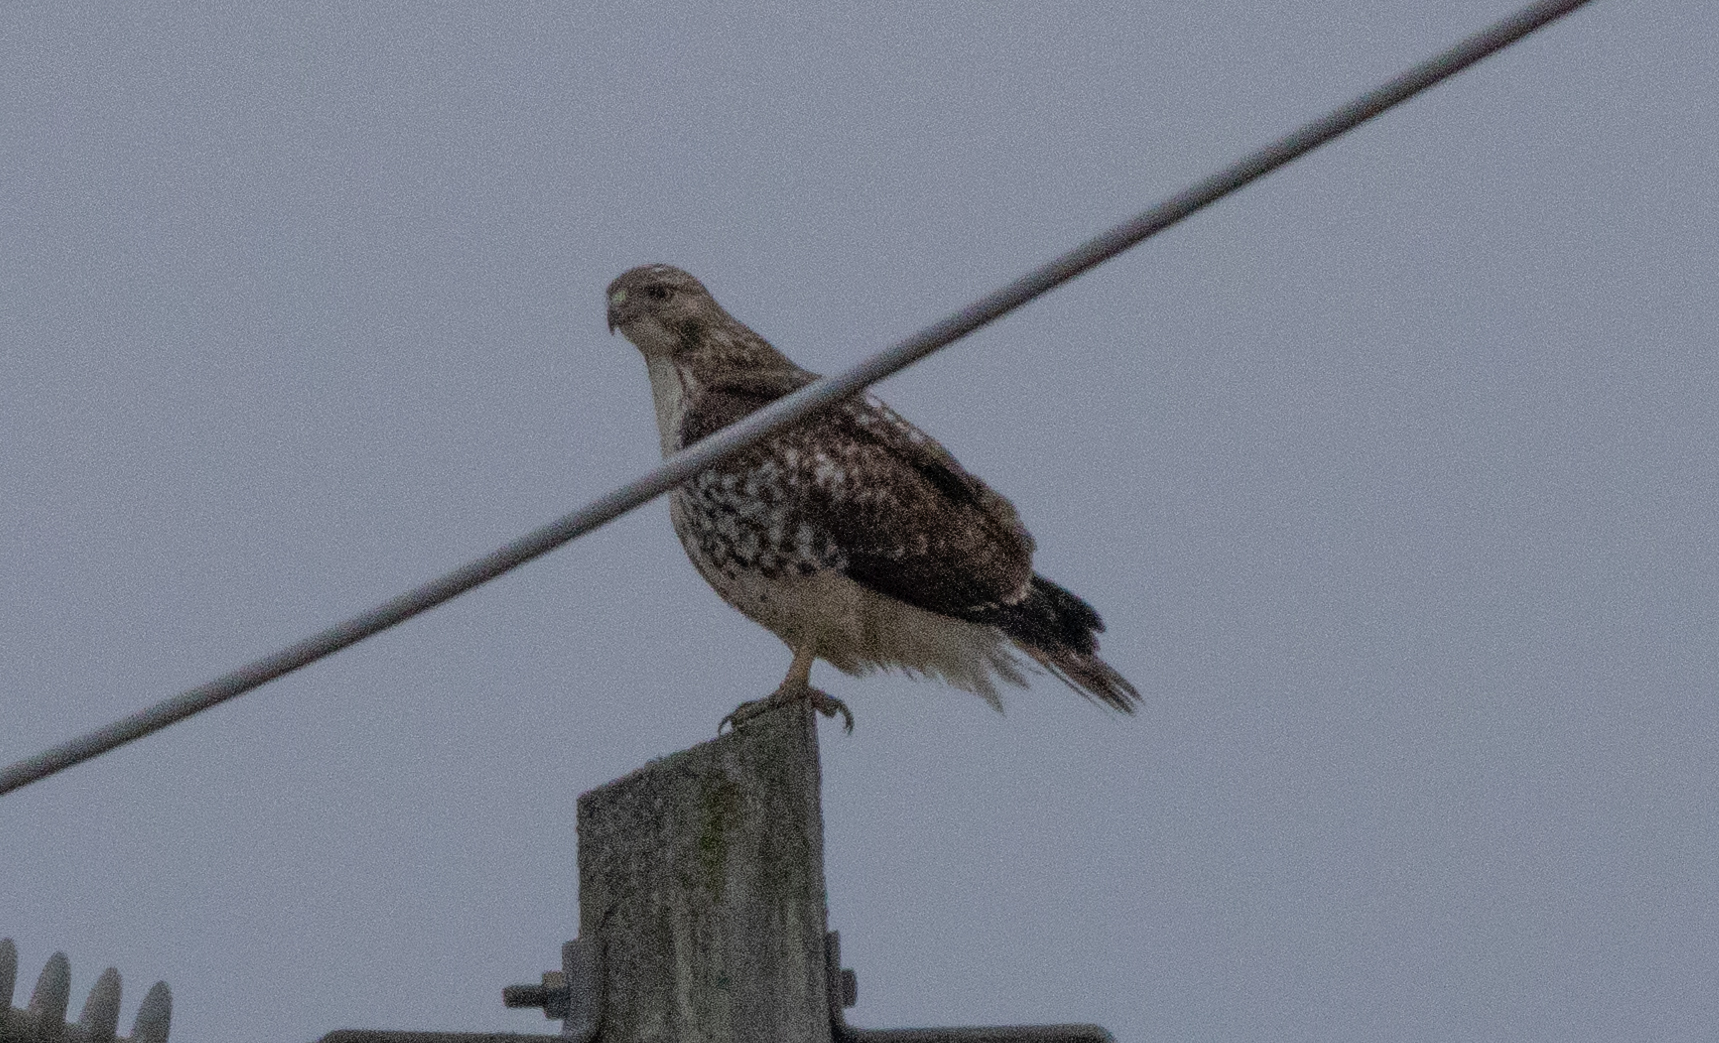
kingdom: Animalia
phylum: Chordata
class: Aves
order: Accipitriformes
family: Accipitridae
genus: Buteo
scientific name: Buteo jamaicensis
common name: Red-tailed hawk
